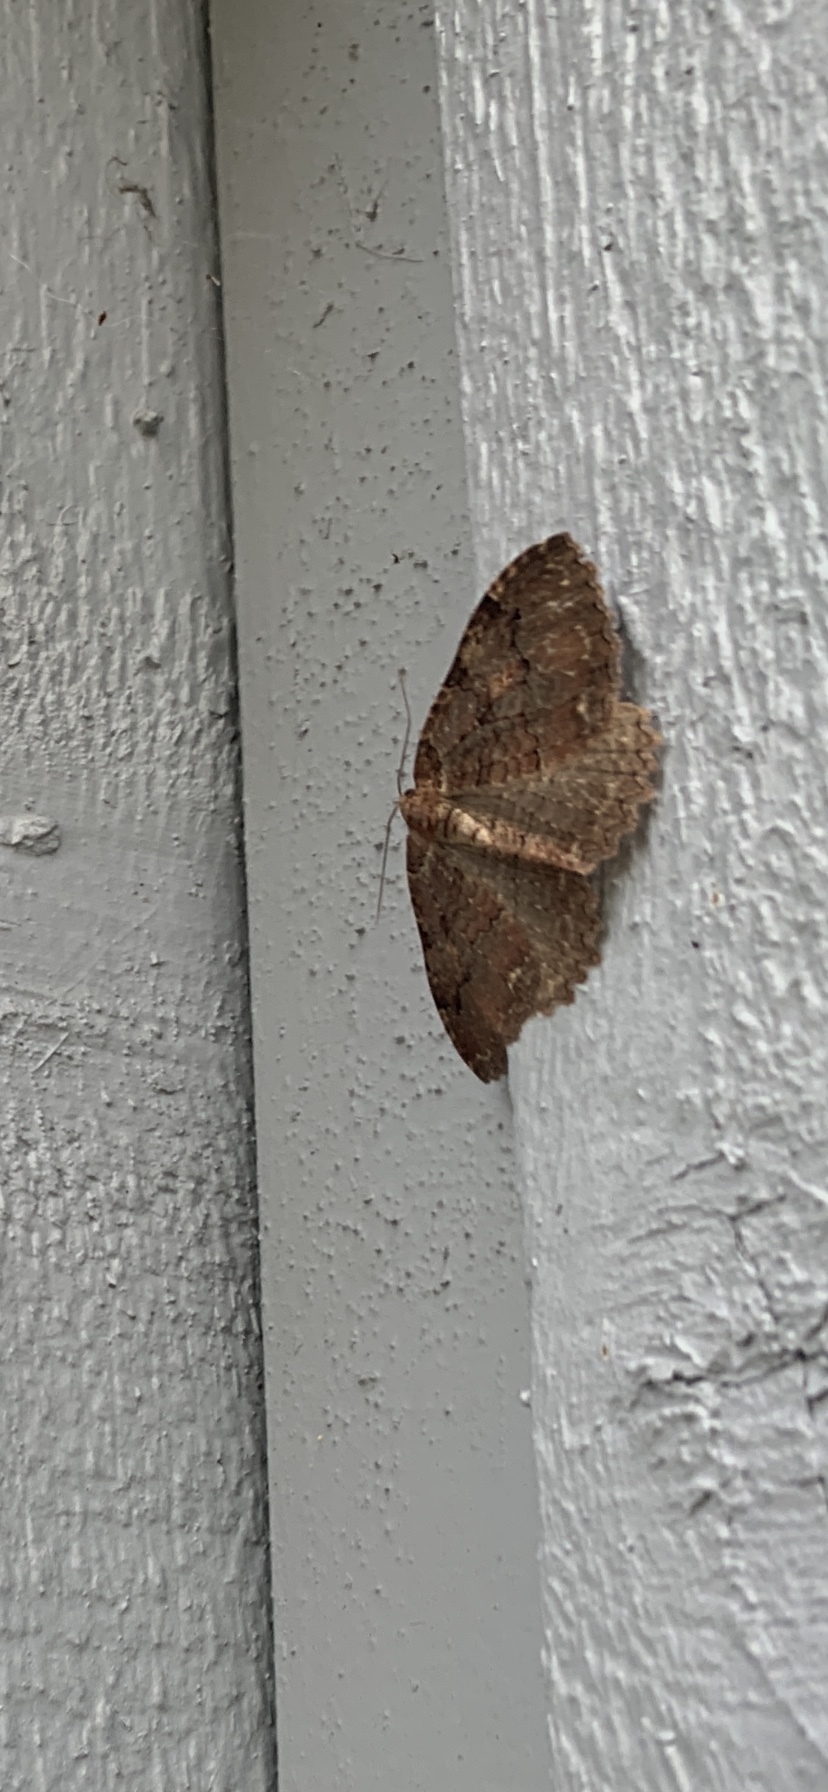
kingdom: Animalia
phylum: Arthropoda
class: Insecta
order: Lepidoptera
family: Geometridae
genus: Triphosa
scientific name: Triphosa haesitata
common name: Tissue moth
